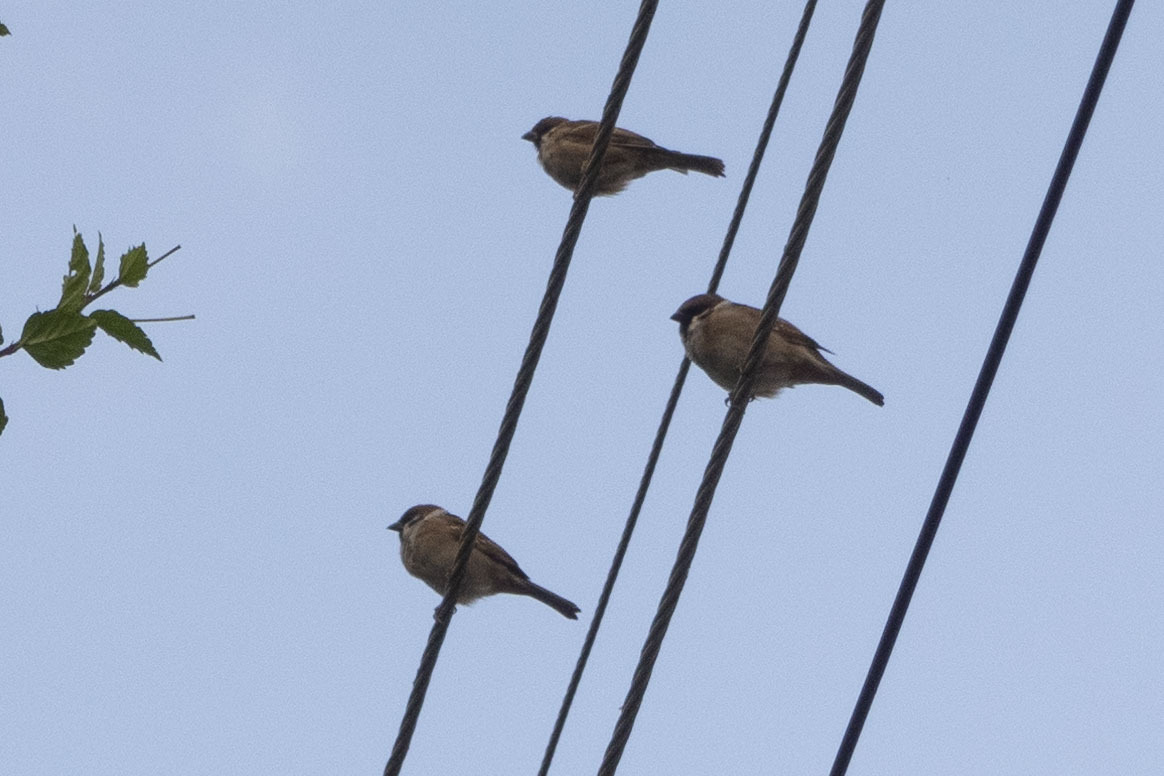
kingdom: Animalia
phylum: Chordata
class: Aves
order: Passeriformes
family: Passeridae
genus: Passer
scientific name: Passer montanus
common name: Eurasian tree sparrow
